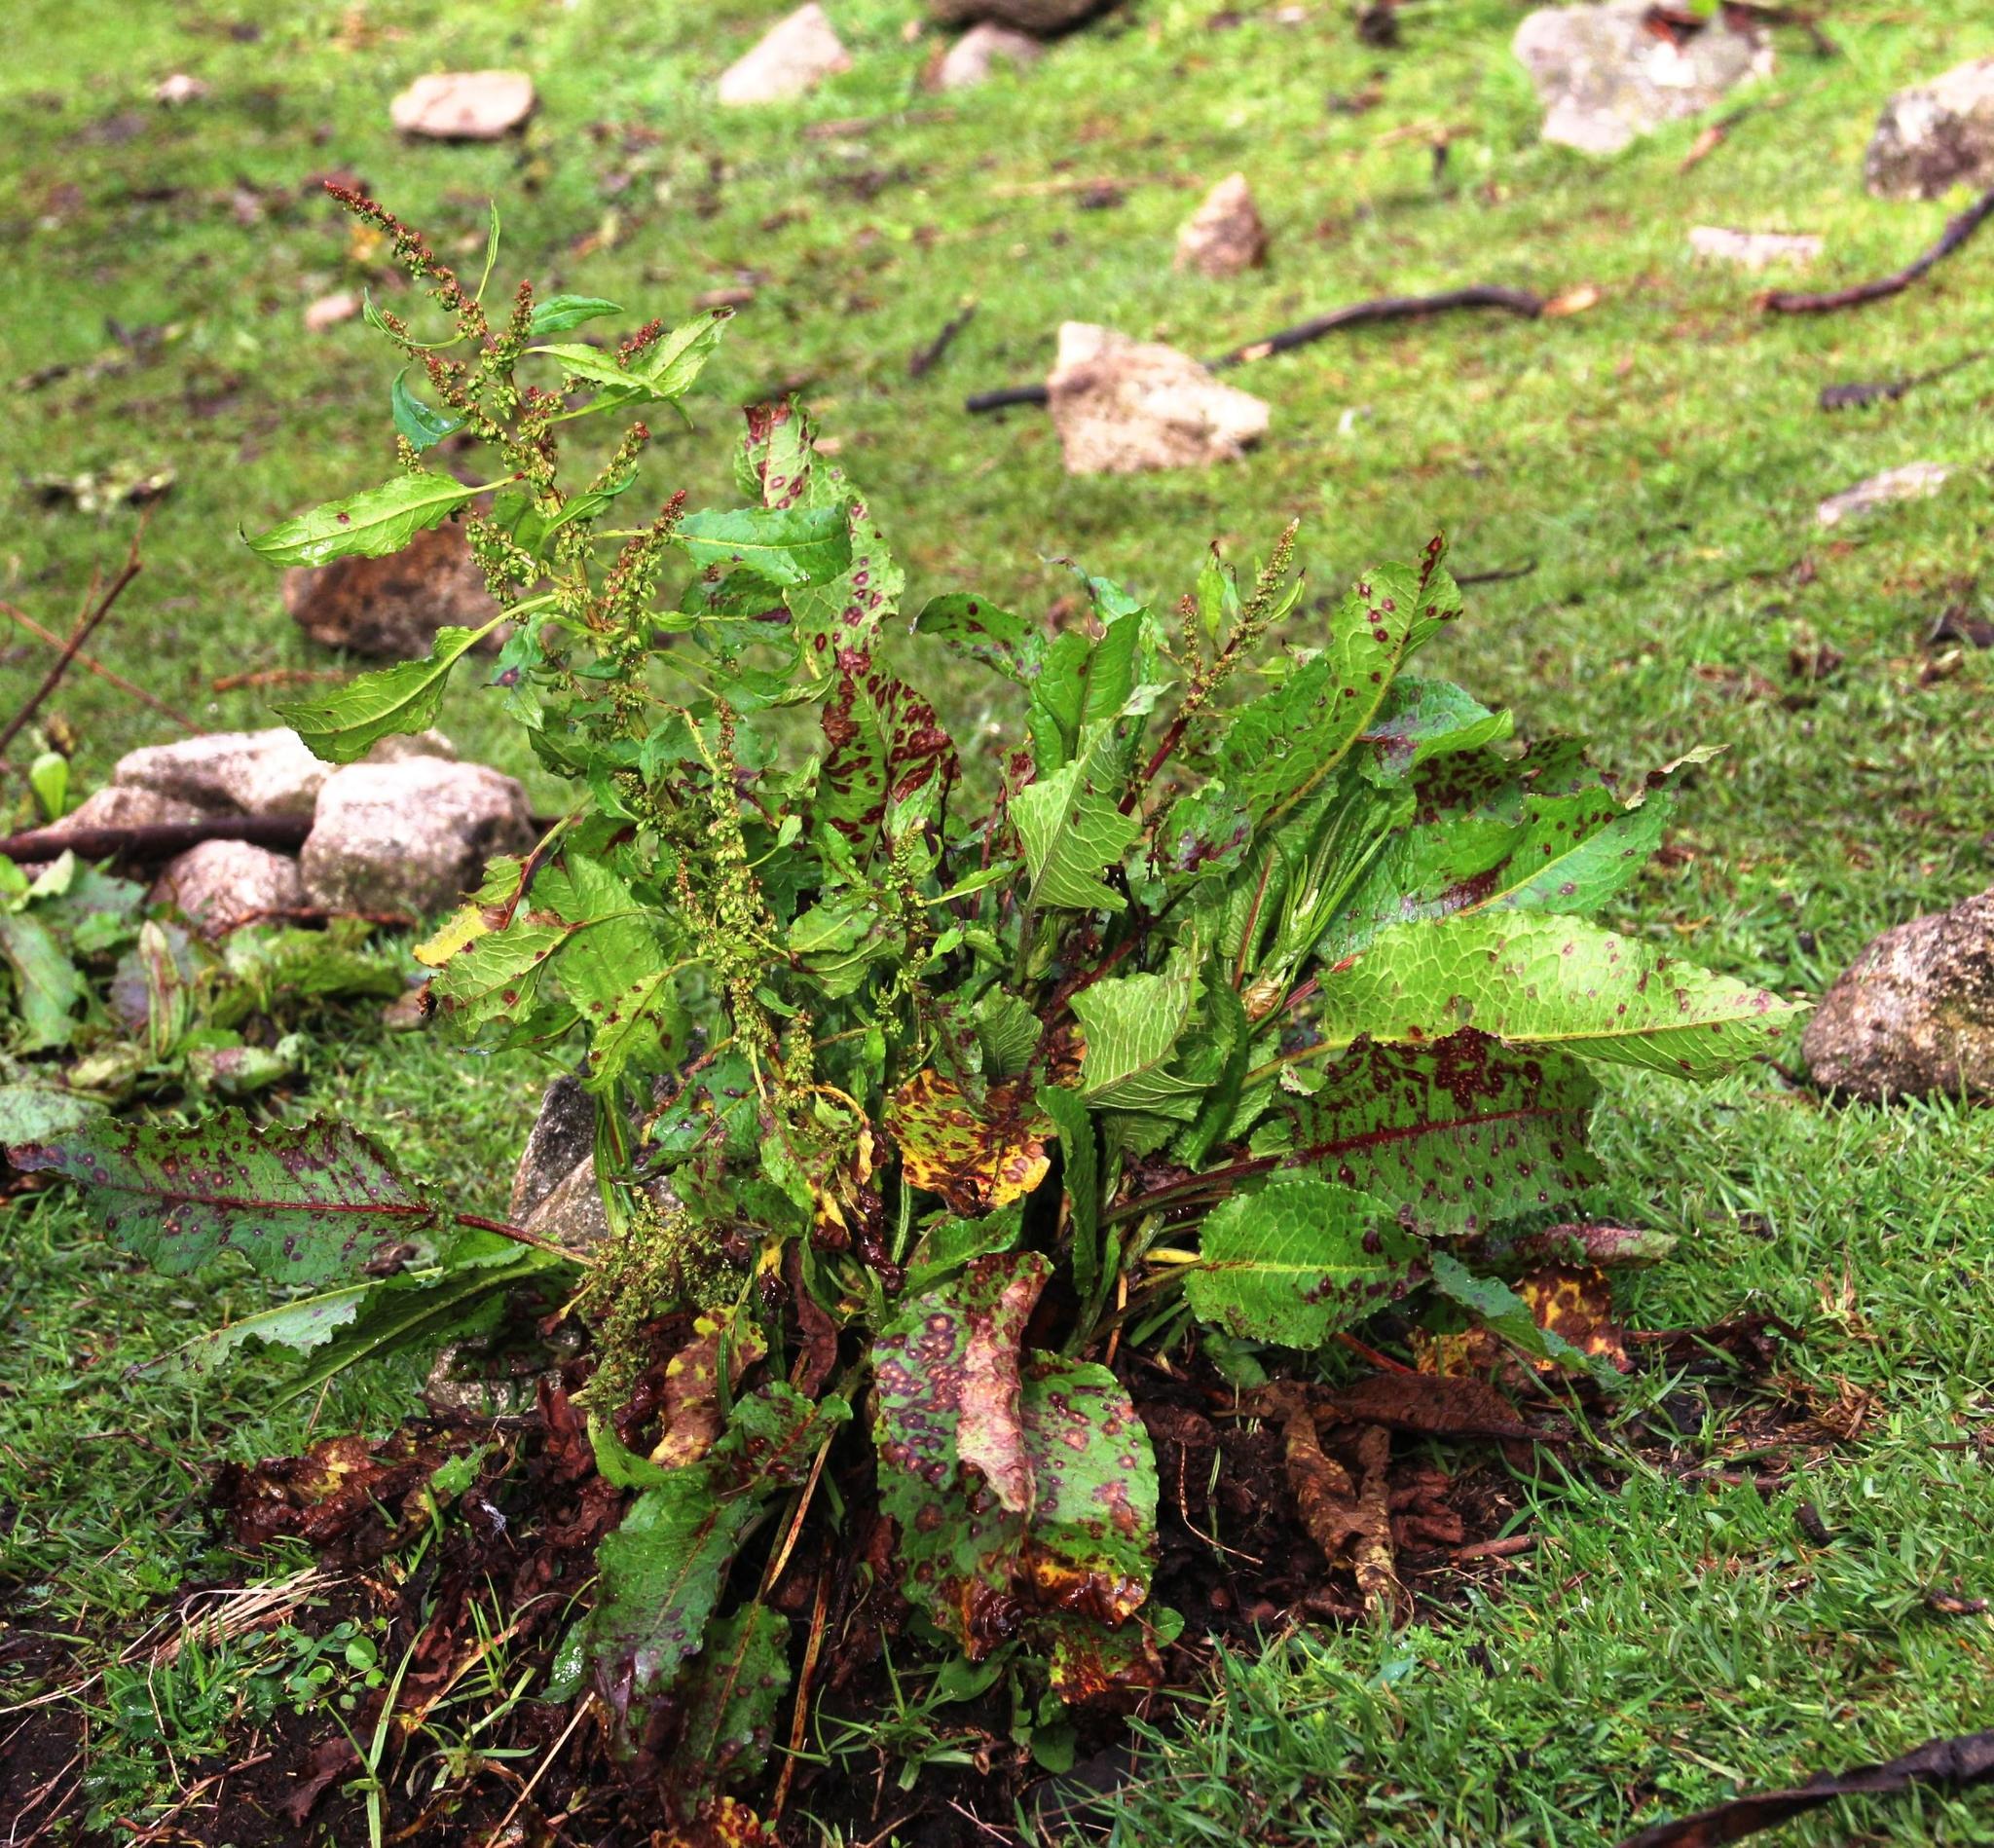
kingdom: Plantae
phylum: Tracheophyta
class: Magnoliopsida
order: Caryophyllales
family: Polygonaceae
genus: Rumex
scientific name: Rumex crispus
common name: Curled dock
